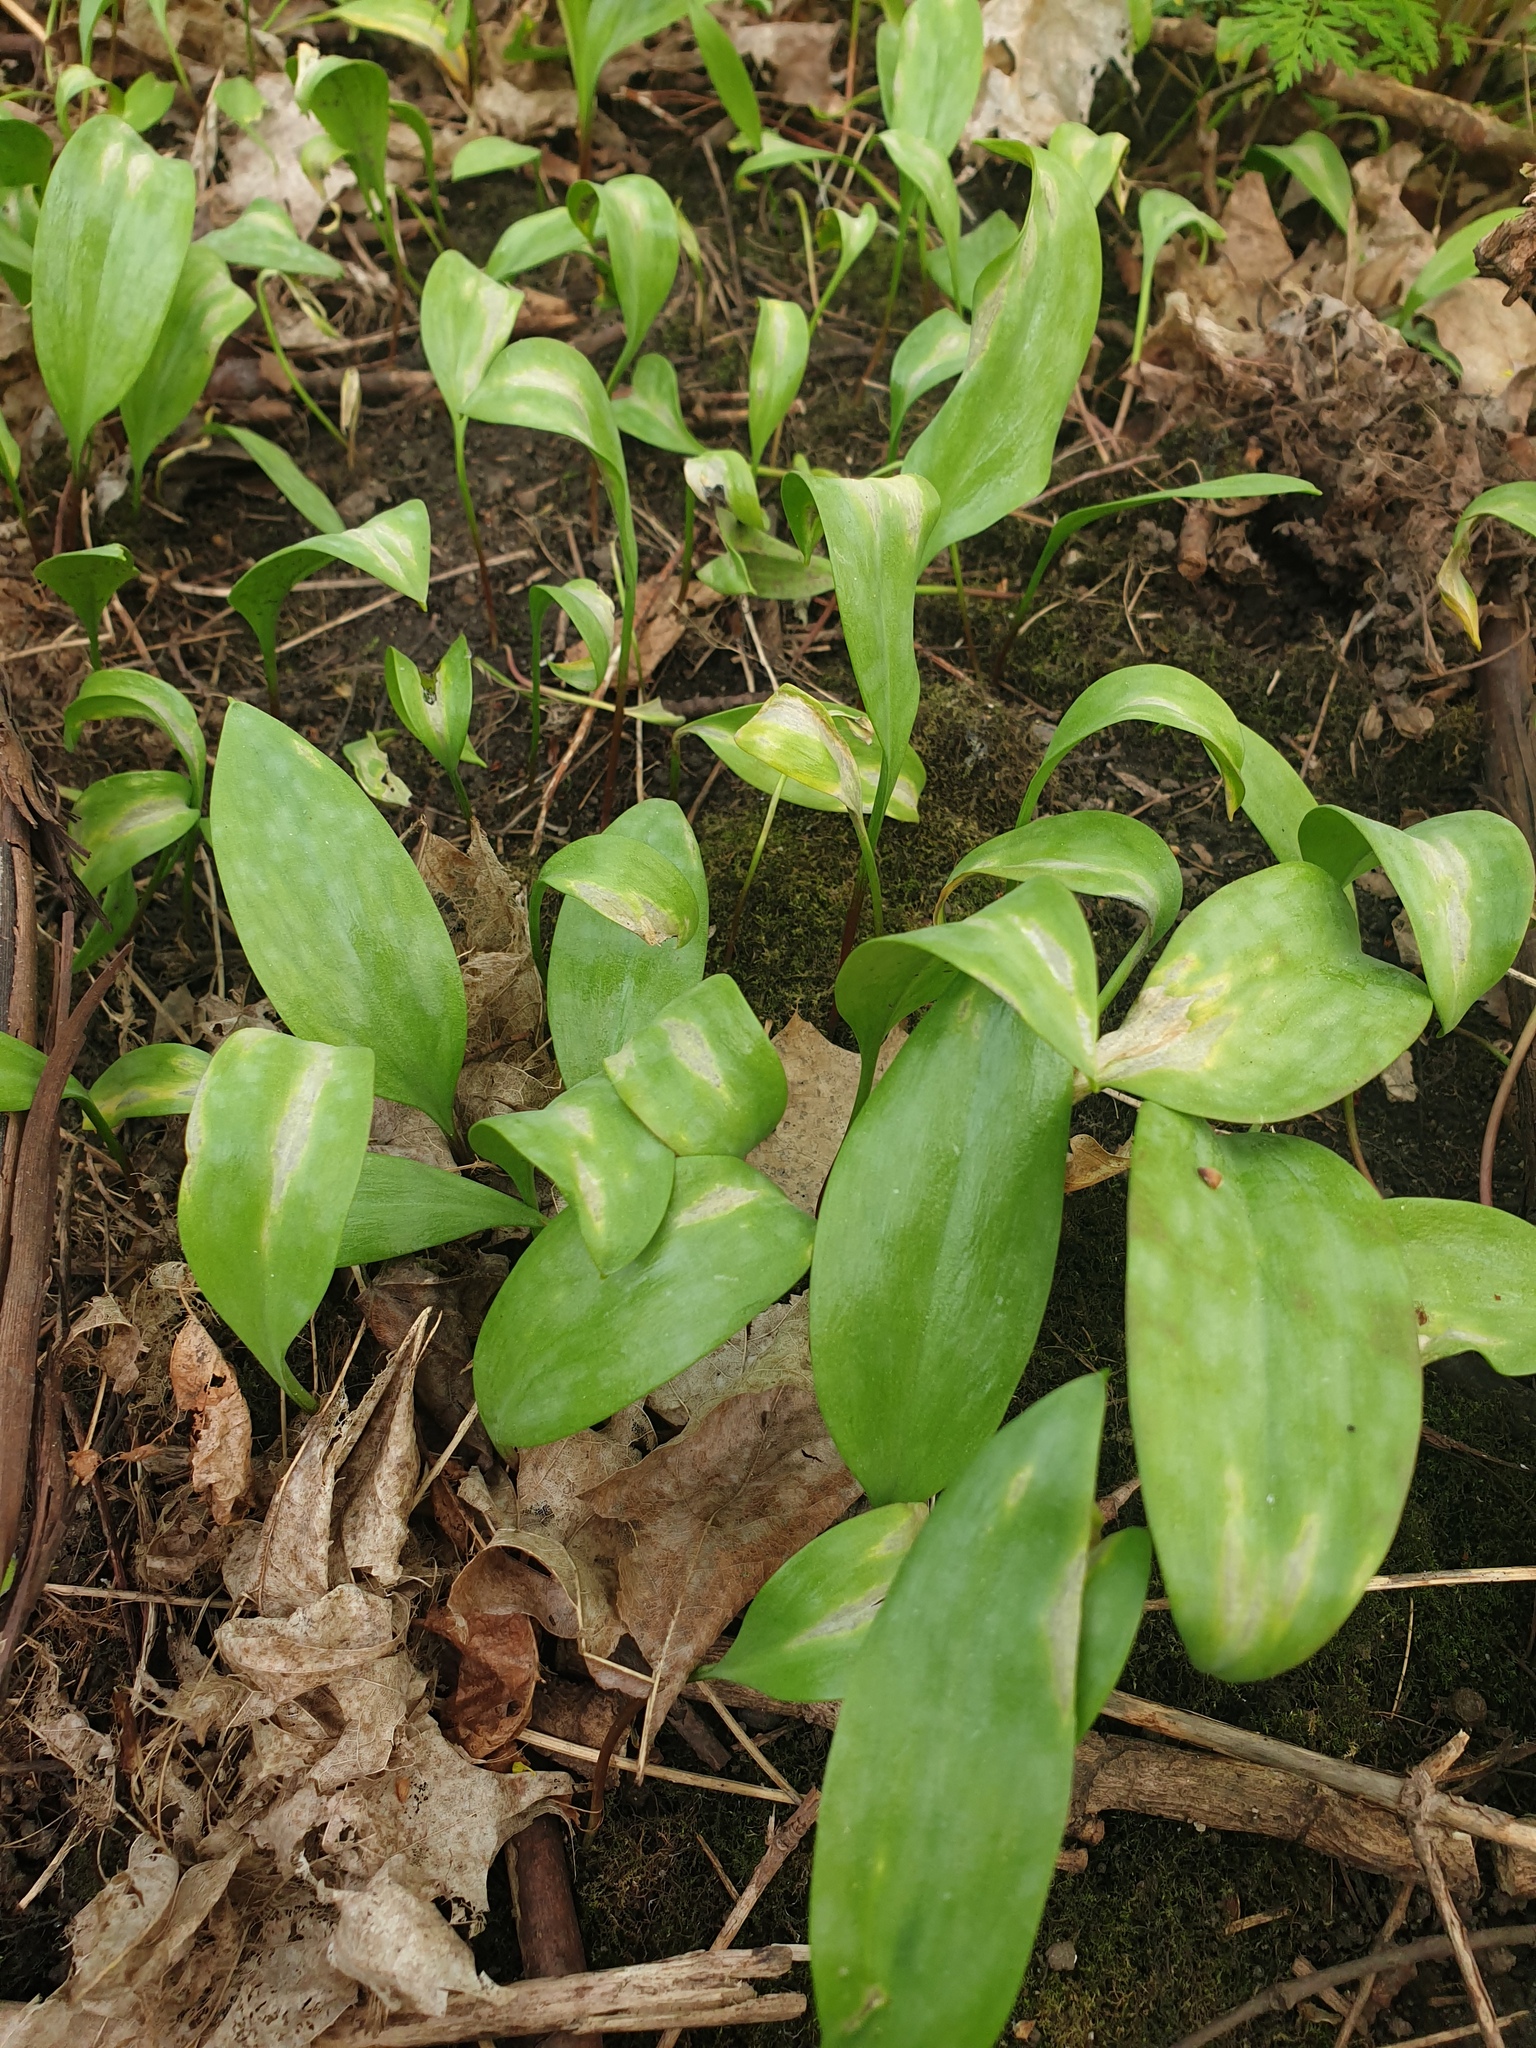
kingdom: Plantae
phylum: Tracheophyta
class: Liliopsida
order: Liliales
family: Liliaceae
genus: Erythronium
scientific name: Erythronium americanum
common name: Yellow adder's-tongue
